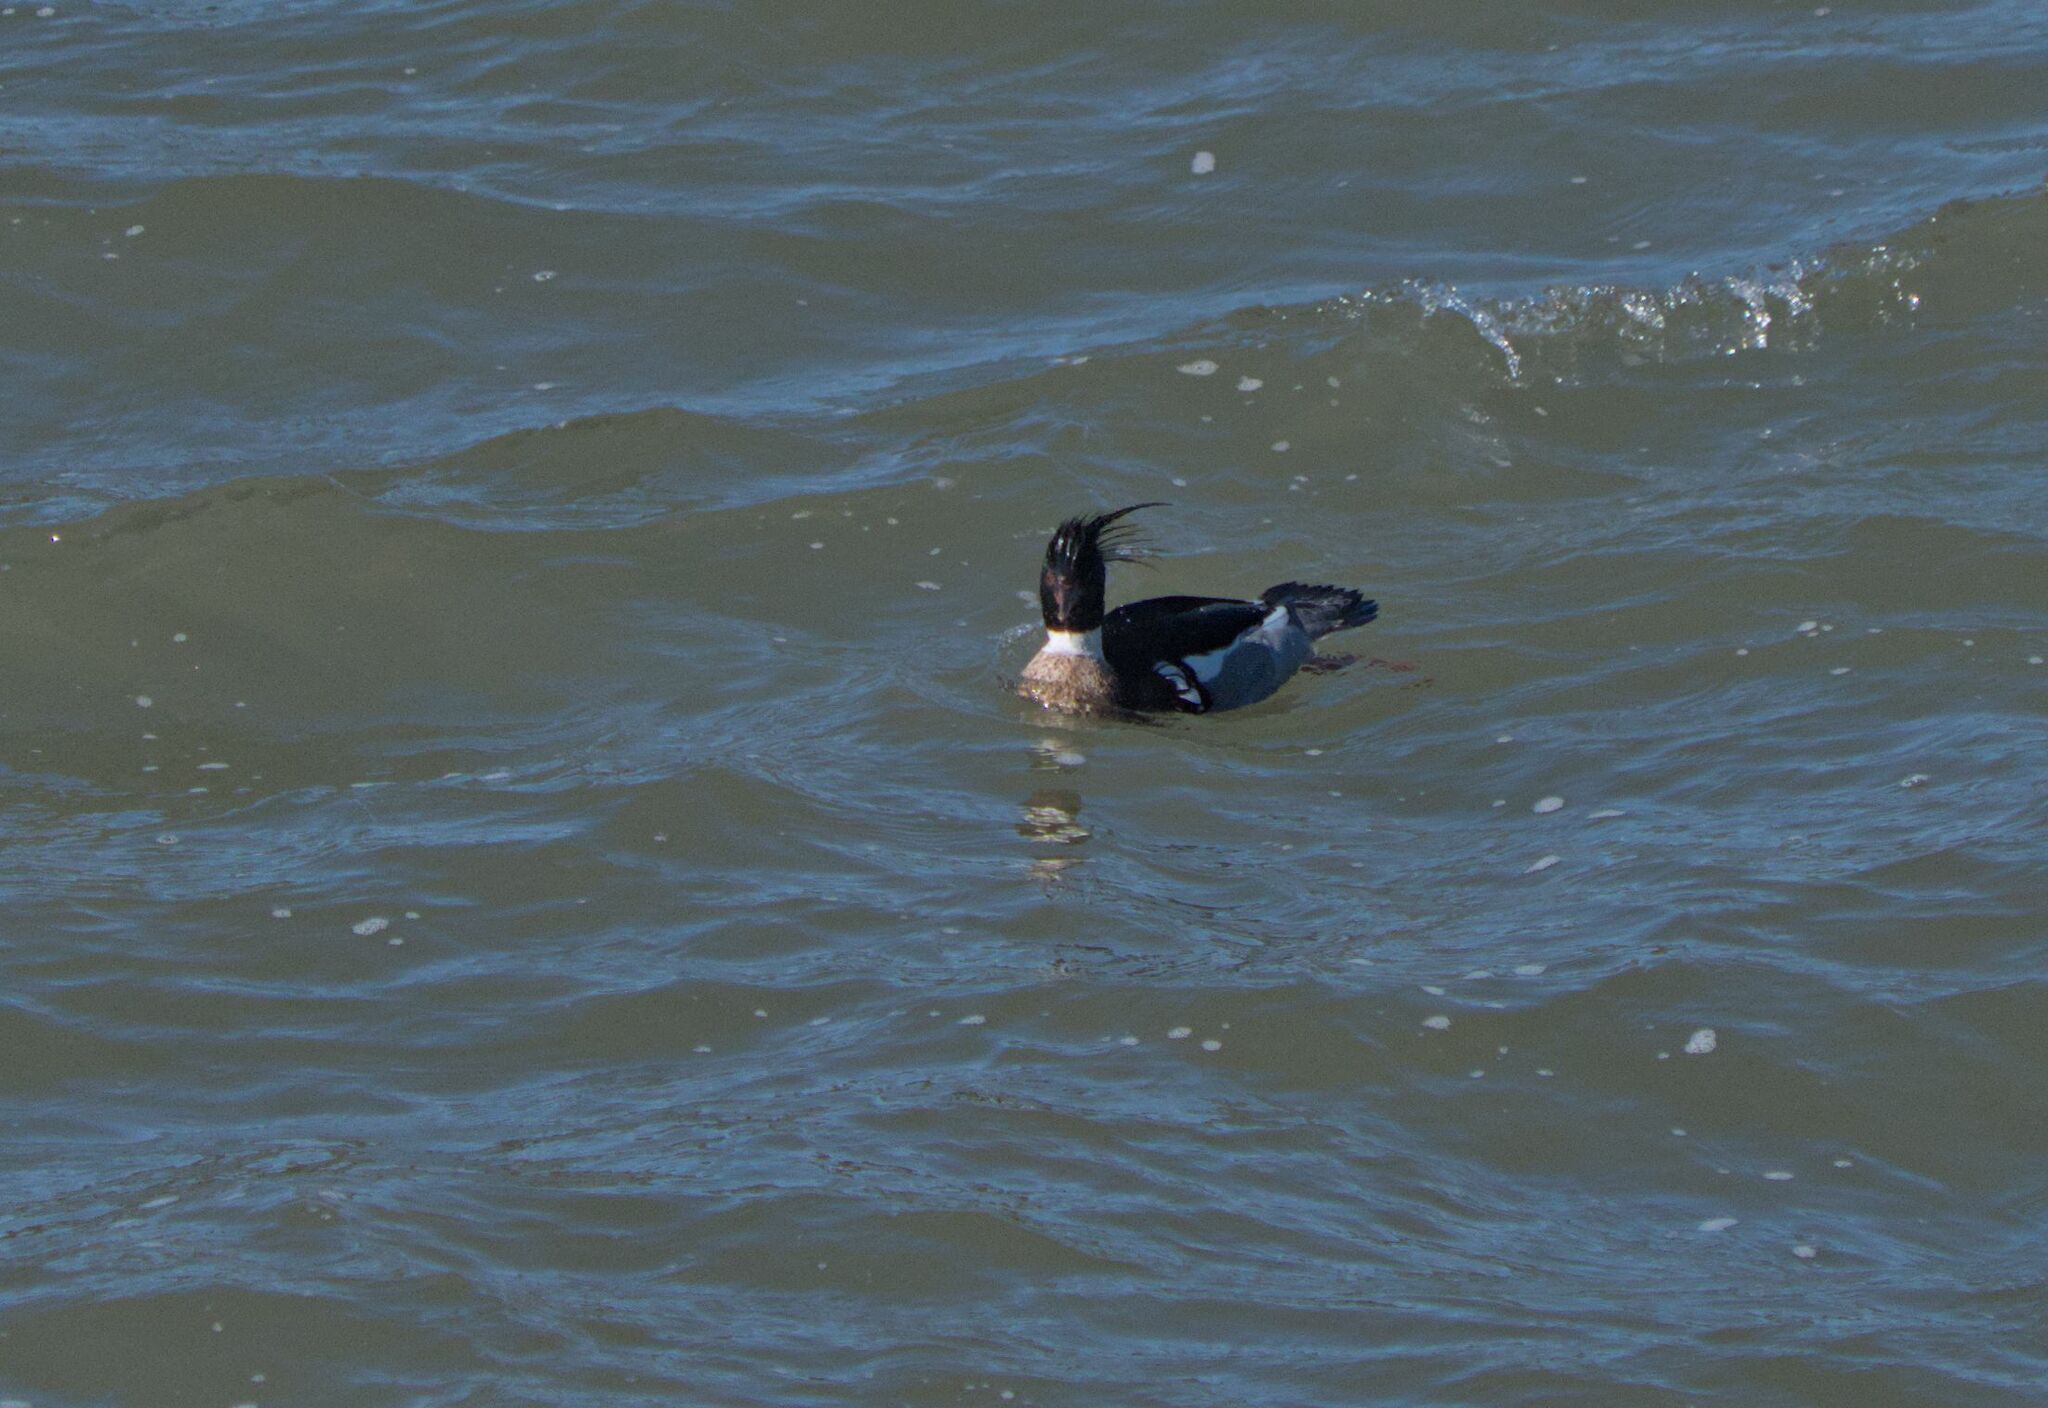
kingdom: Animalia
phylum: Chordata
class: Aves
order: Anseriformes
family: Anatidae
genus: Mergus
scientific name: Mergus serrator
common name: Red-breasted merganser
